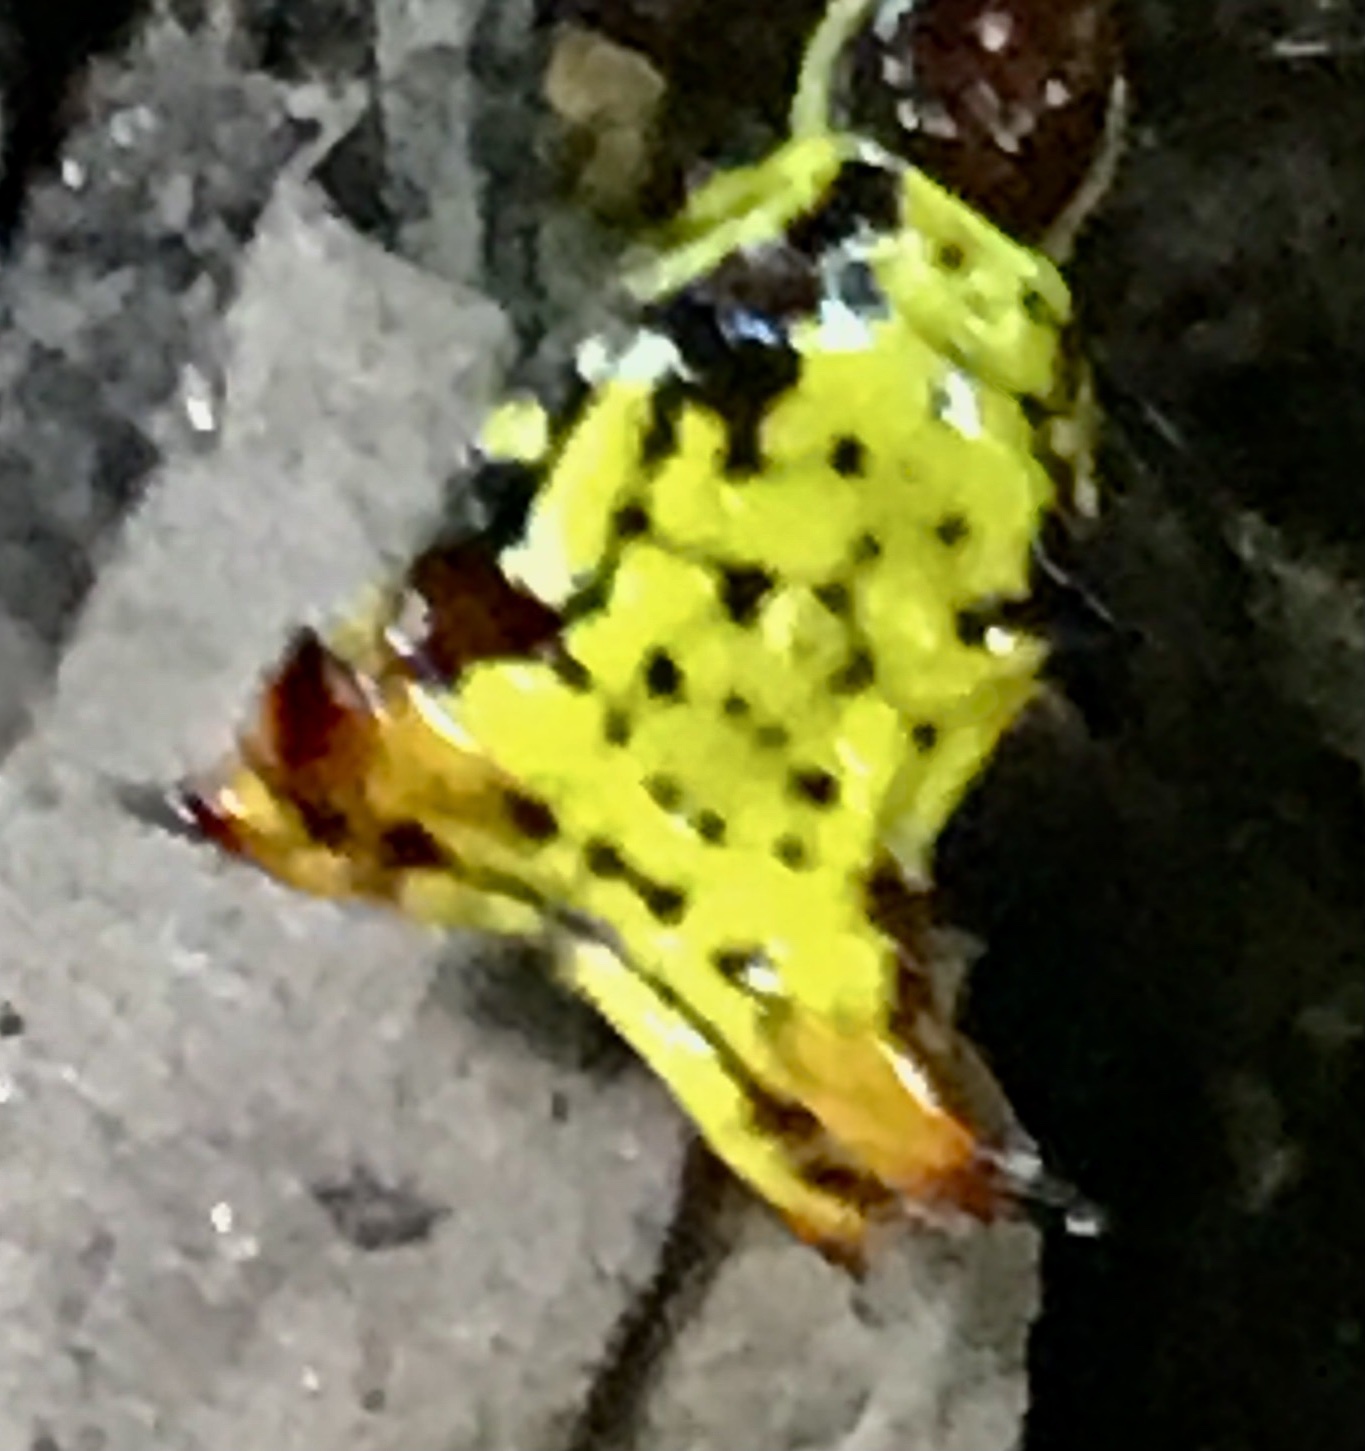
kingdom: Animalia
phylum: Arthropoda
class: Arachnida
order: Araneae
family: Araneidae
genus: Micrathena
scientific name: Micrathena fissispina
